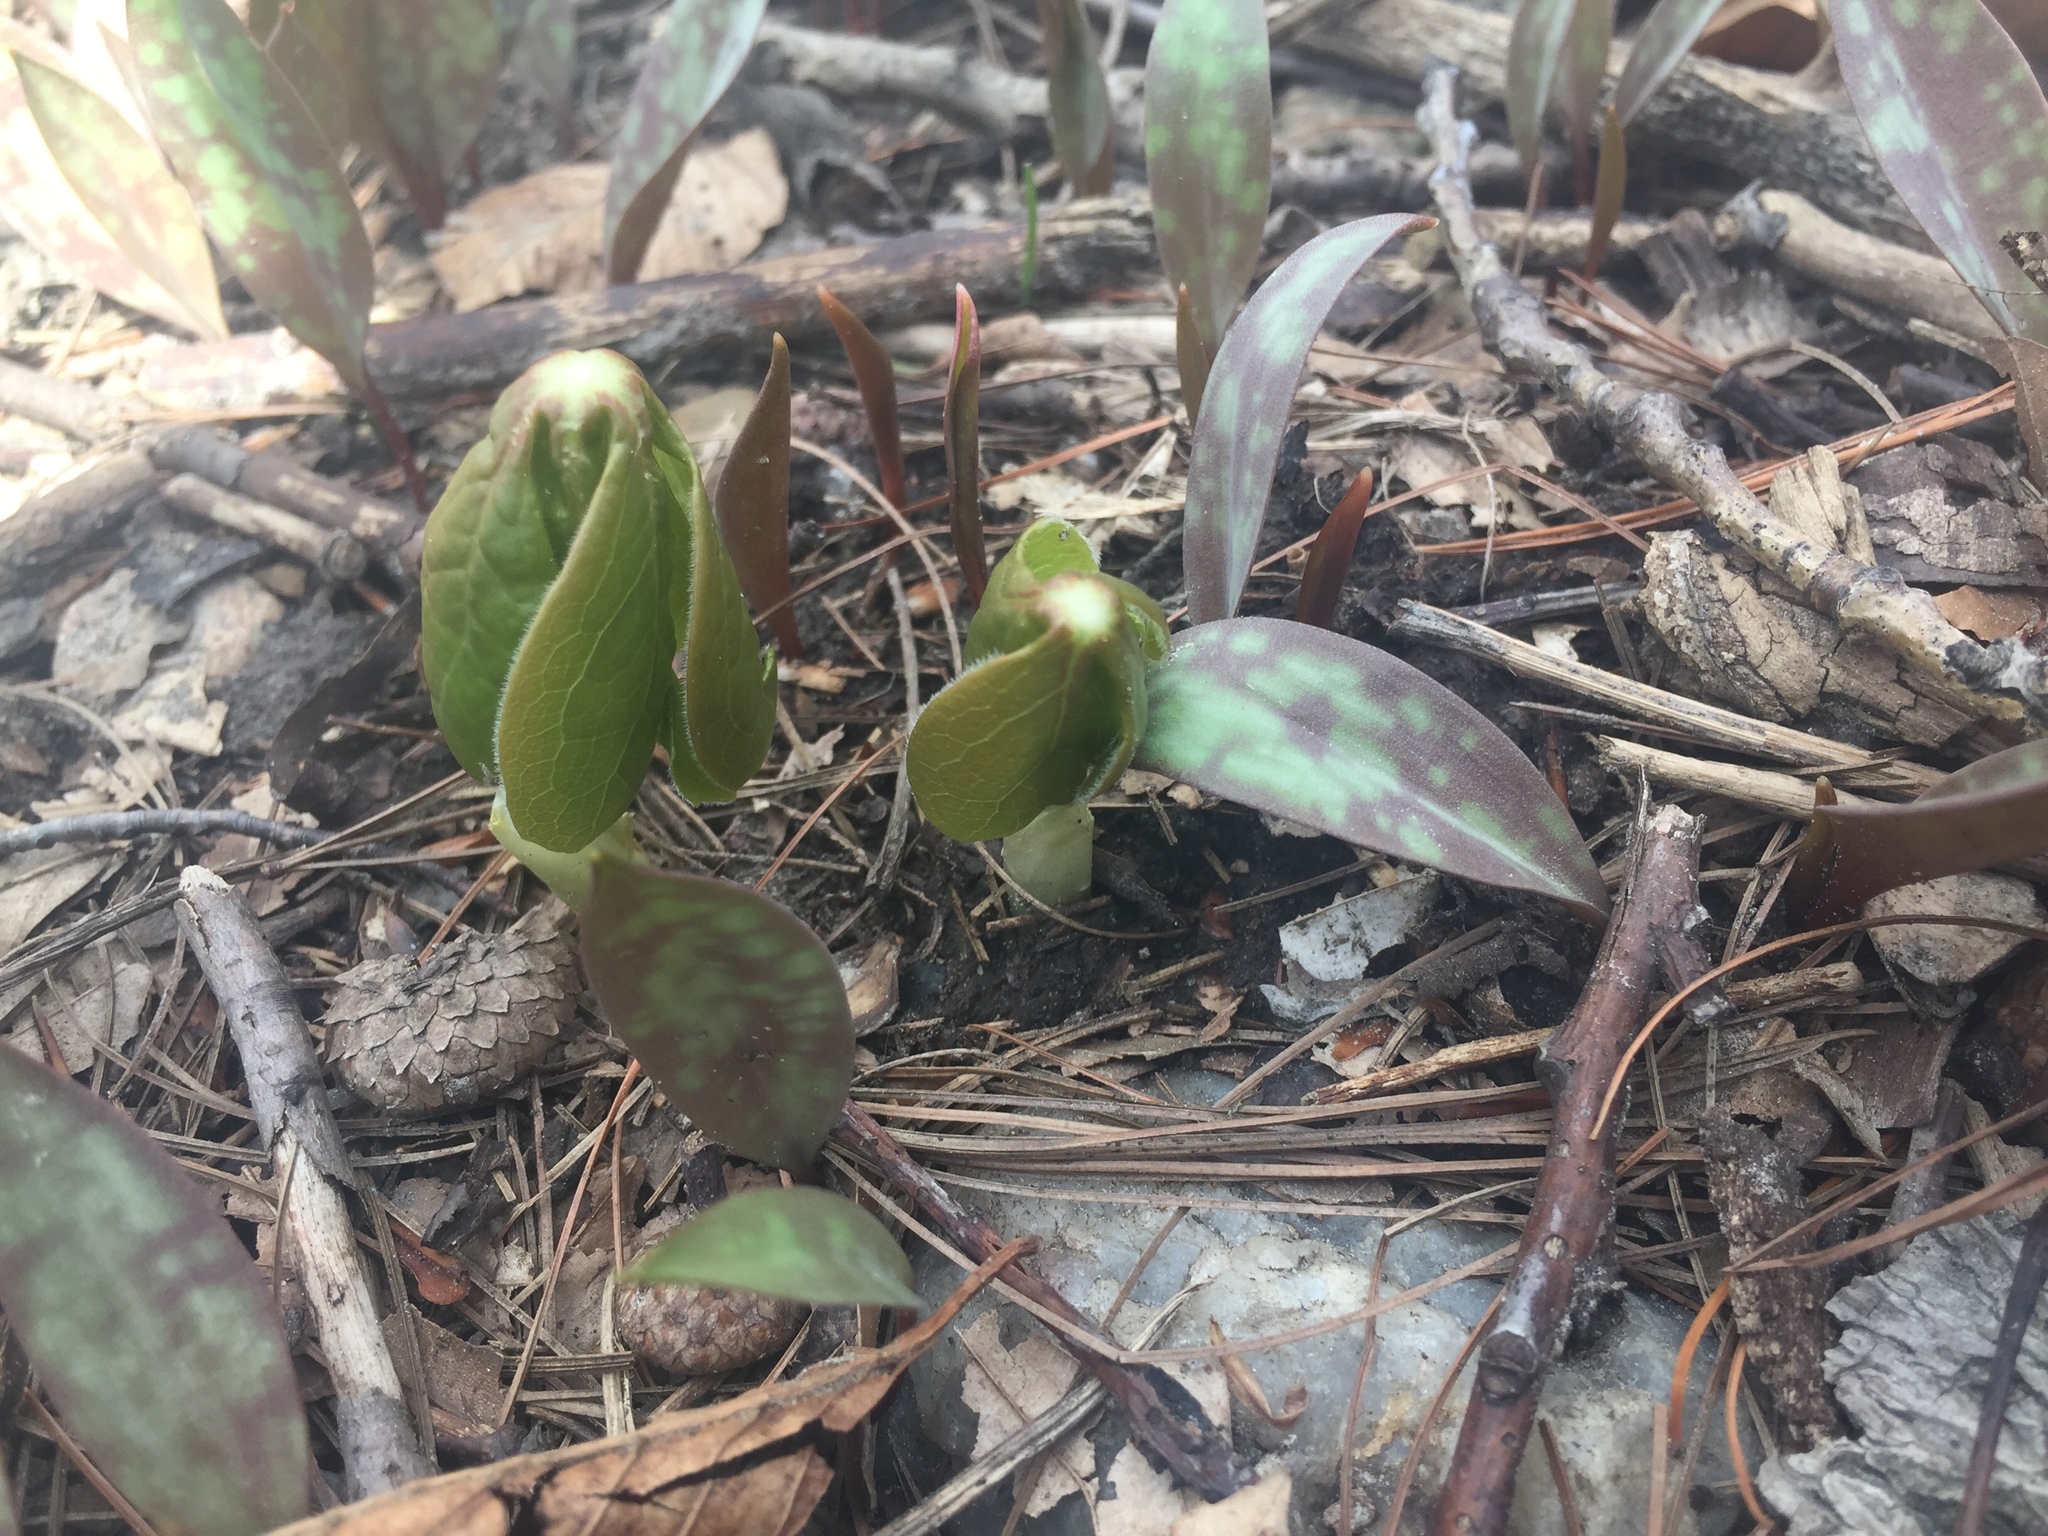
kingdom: Plantae
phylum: Tracheophyta
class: Magnoliopsida
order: Ranunculales
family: Berberidaceae
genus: Podophyllum
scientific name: Podophyllum peltatum
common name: Wild mandrake
